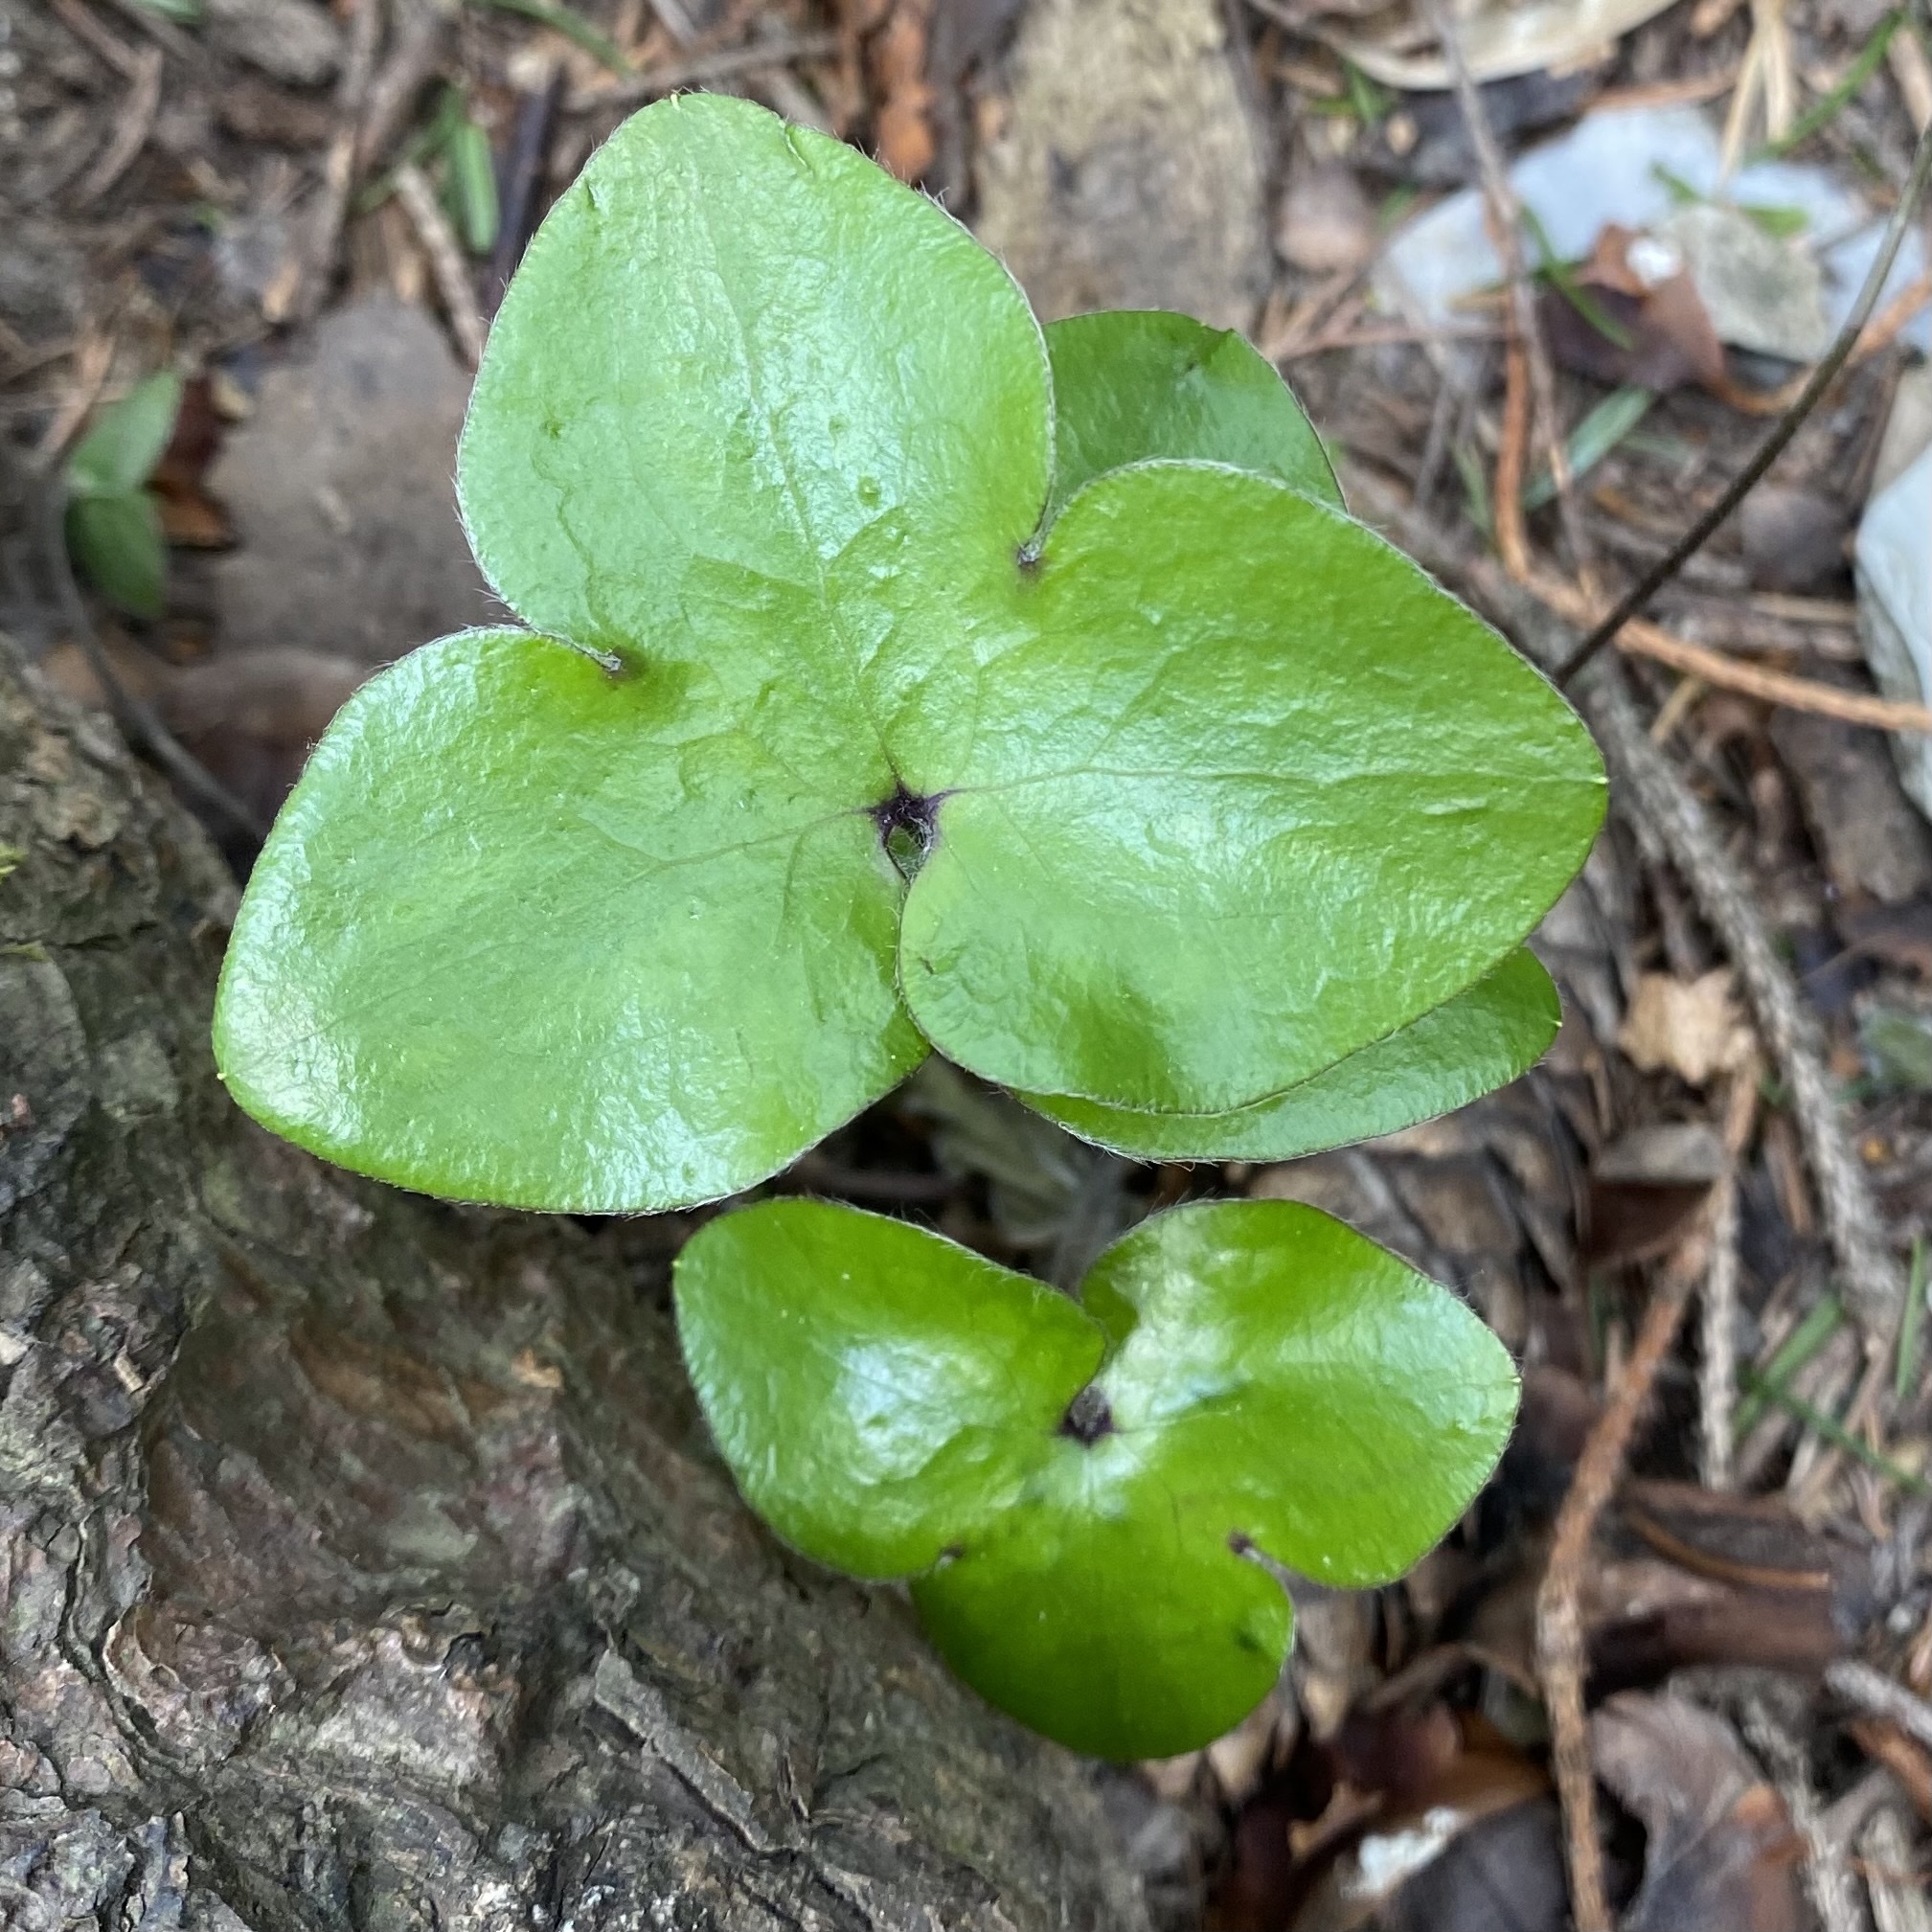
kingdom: Plantae
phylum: Tracheophyta
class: Magnoliopsida
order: Ranunculales
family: Ranunculaceae
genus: Hepatica
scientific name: Hepatica nobilis
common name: Liverleaf
